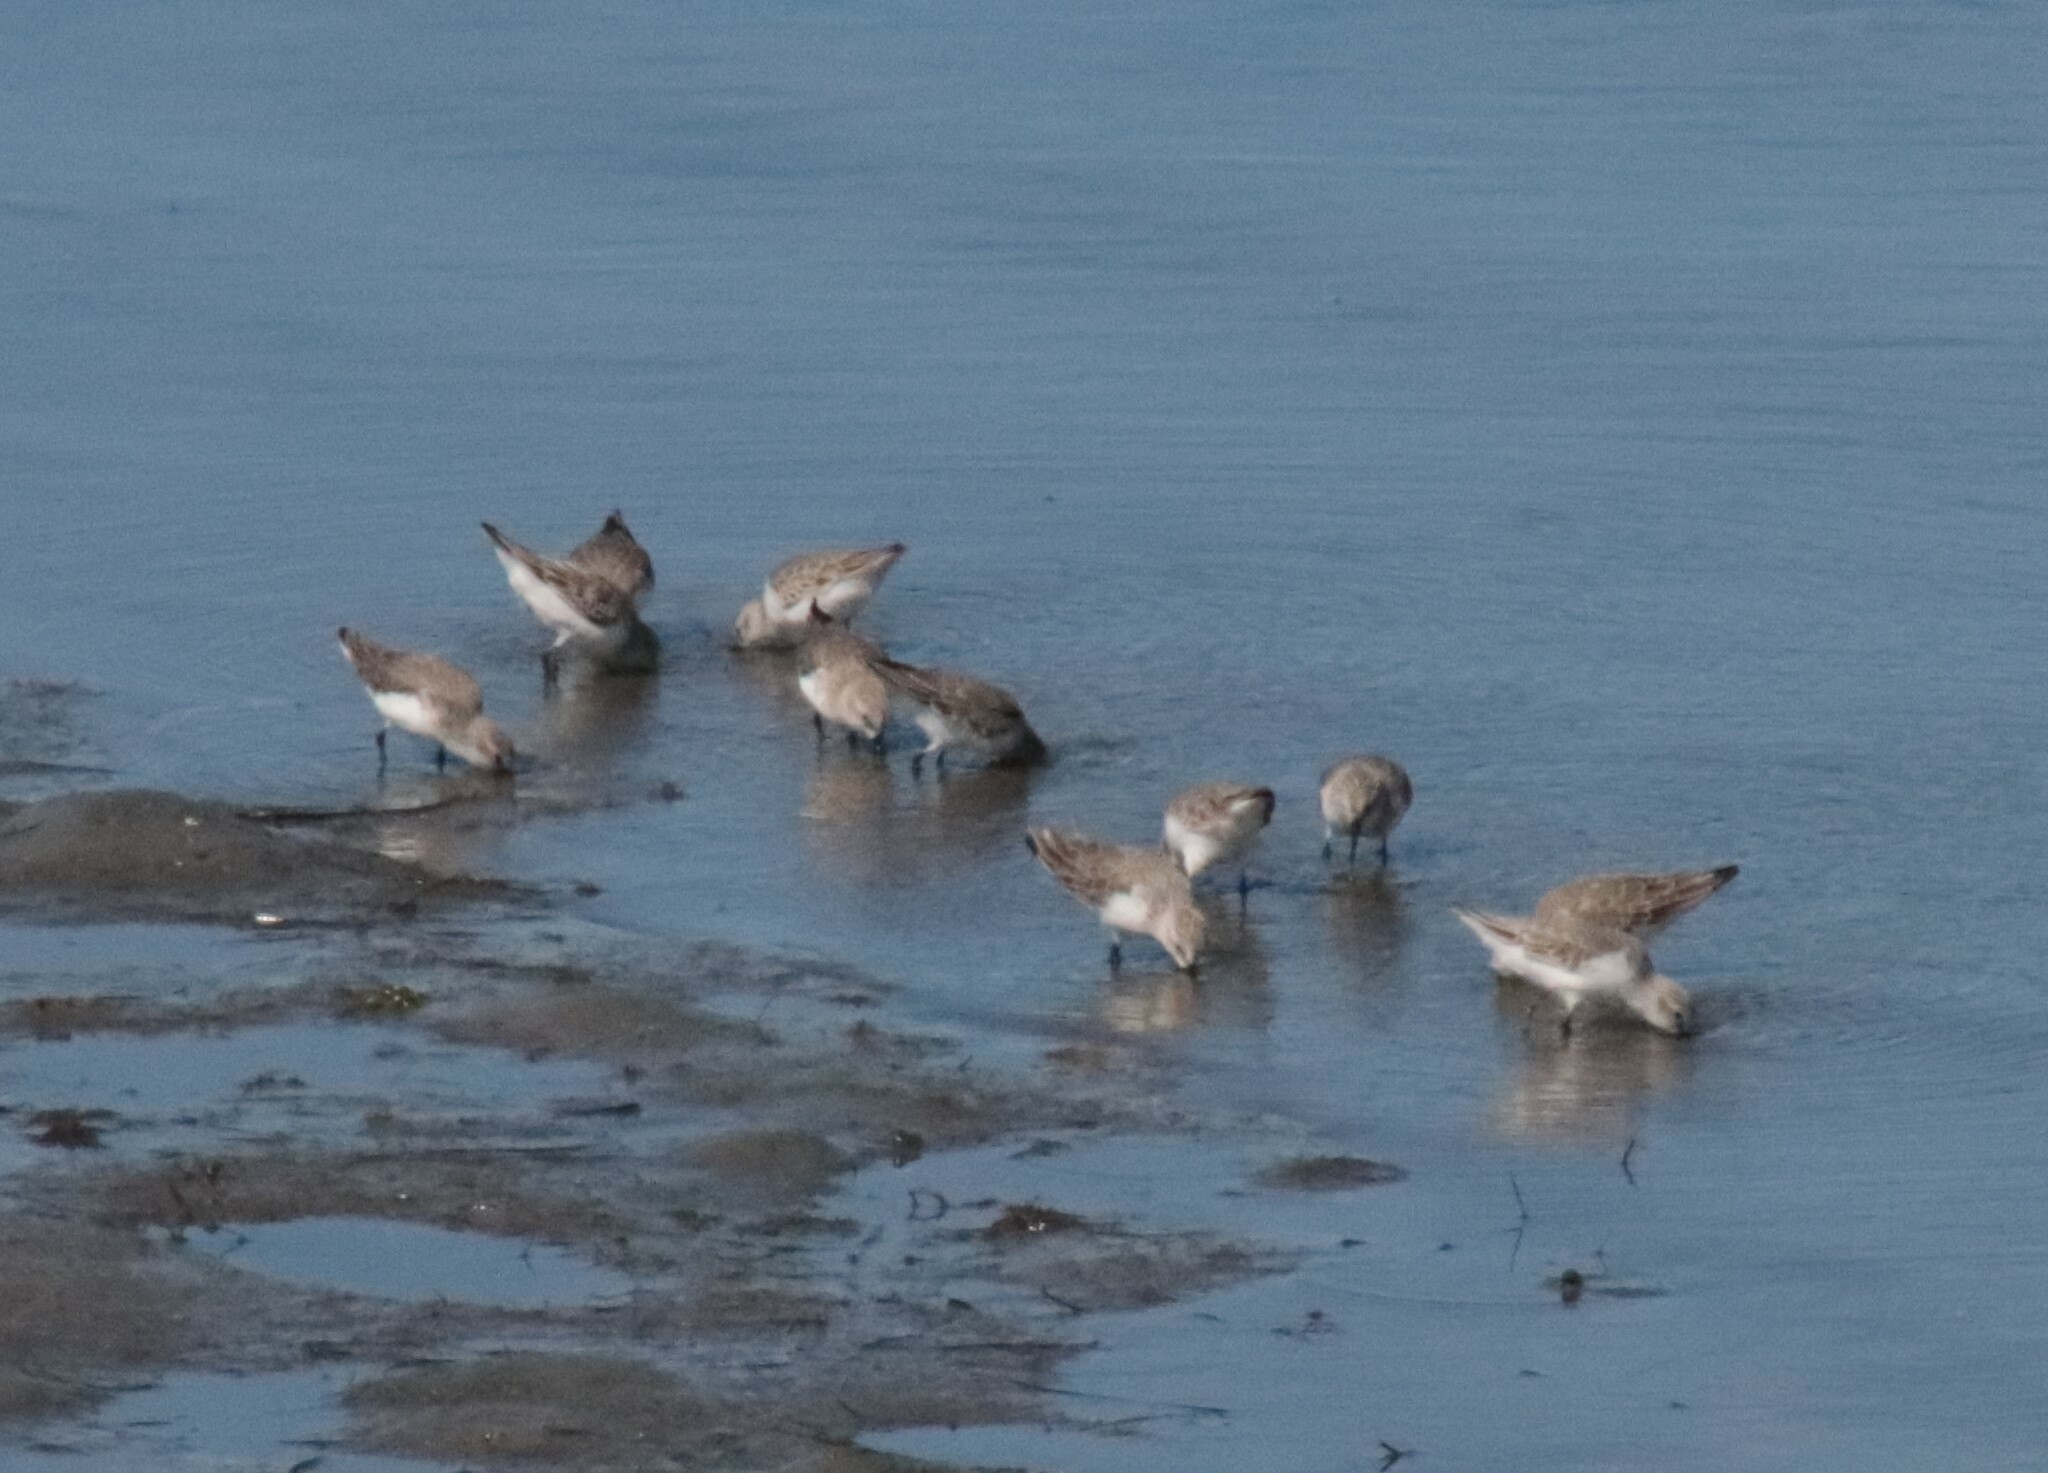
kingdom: Animalia
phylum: Chordata
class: Aves
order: Charadriiformes
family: Scolopacidae
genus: Calidris
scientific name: Calidris mauri
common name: Western sandpiper
